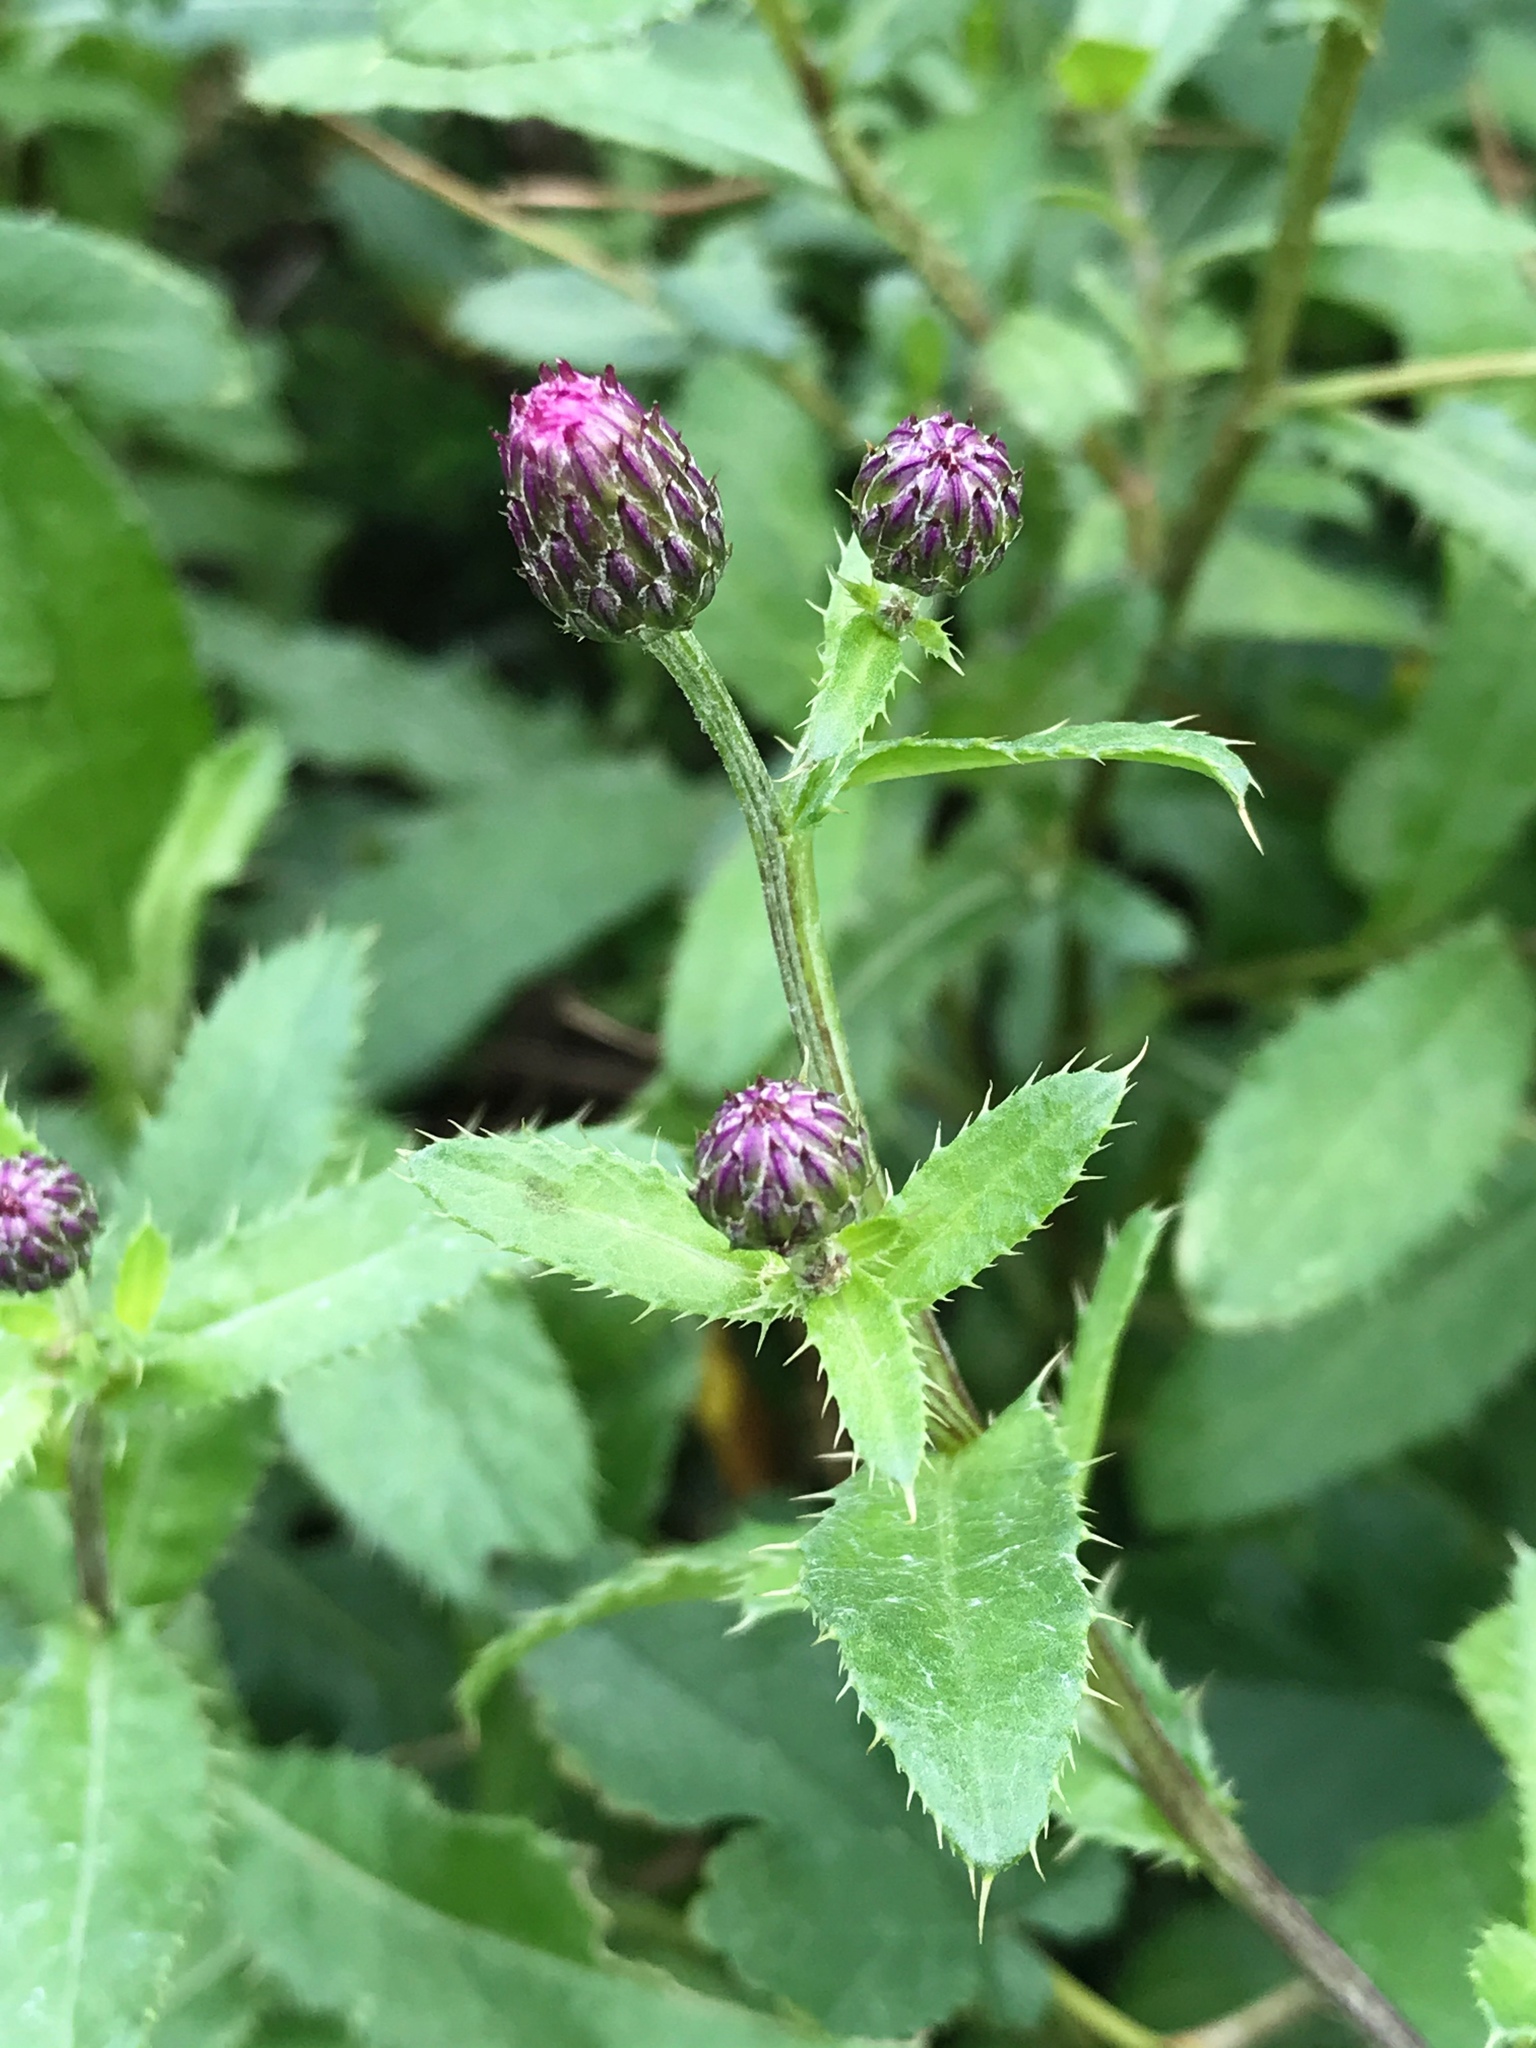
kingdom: Plantae
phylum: Tracheophyta
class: Magnoliopsida
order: Asterales
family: Asteraceae
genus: Cirsium
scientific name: Cirsium arvense
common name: Creeping thistle
